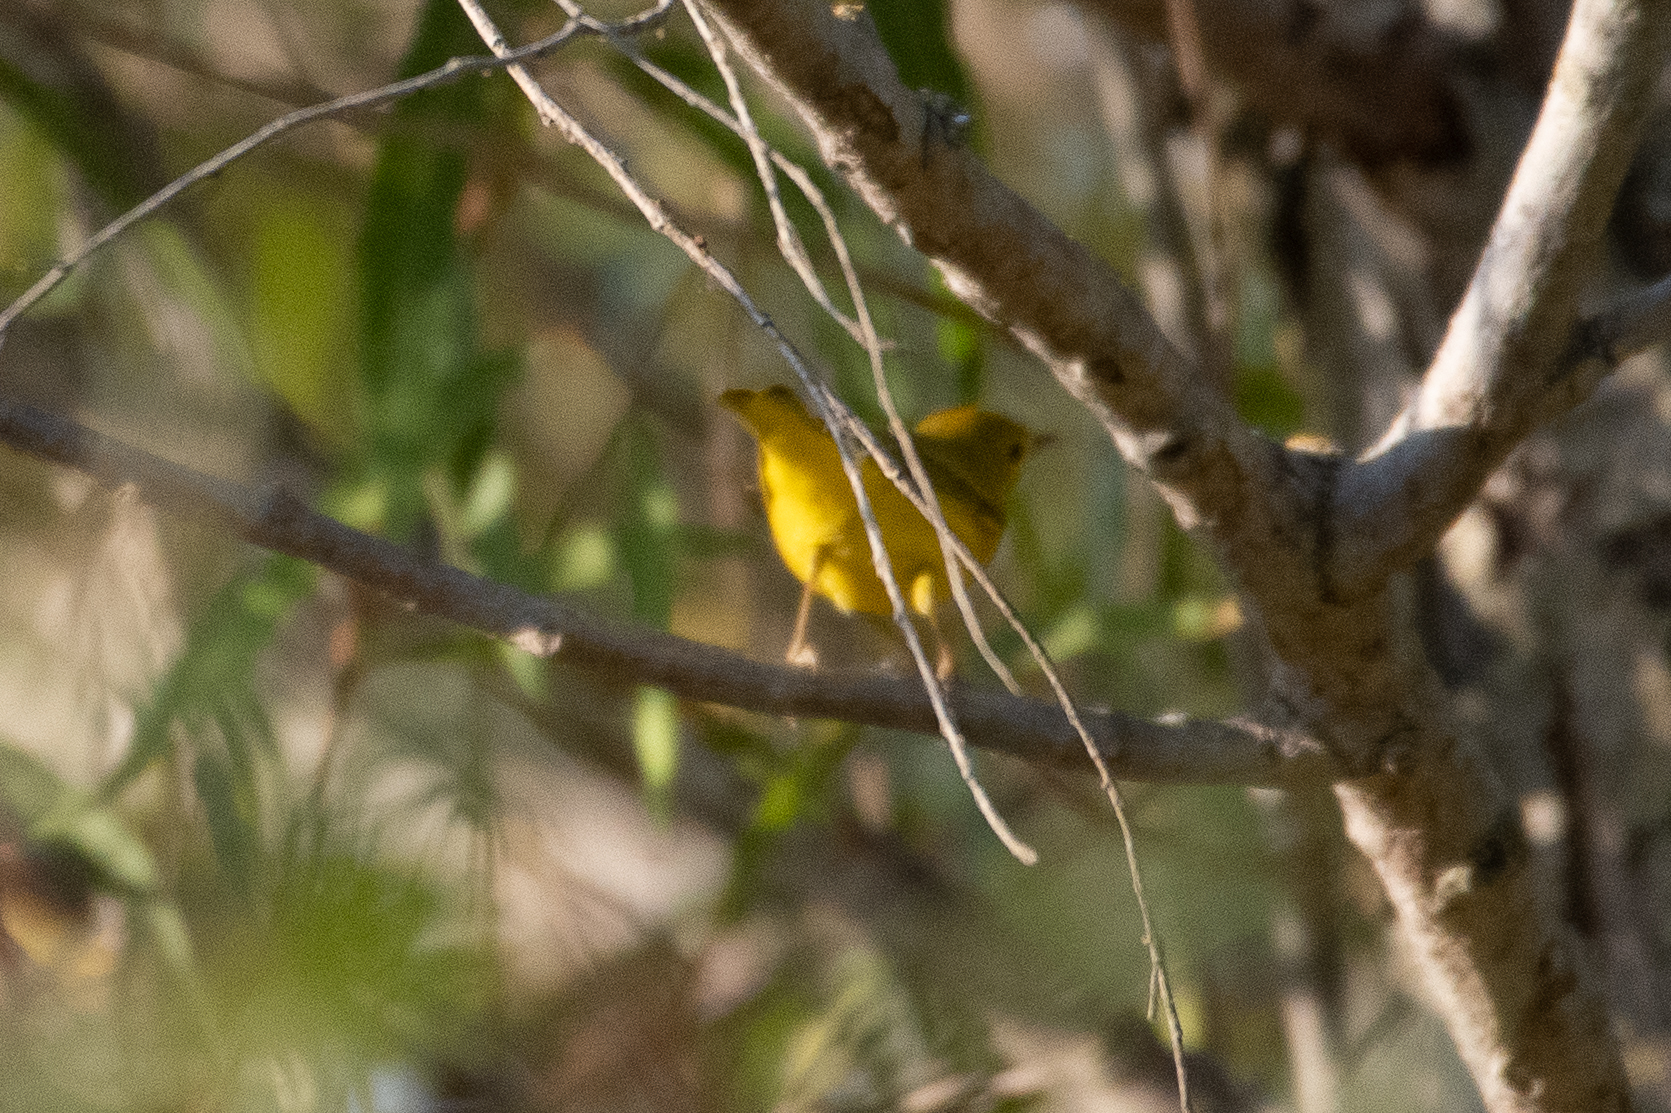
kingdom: Animalia
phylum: Chordata
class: Aves
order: Passeriformes
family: Parulidae
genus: Setophaga
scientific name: Setophaga petechia
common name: Yellow warbler
